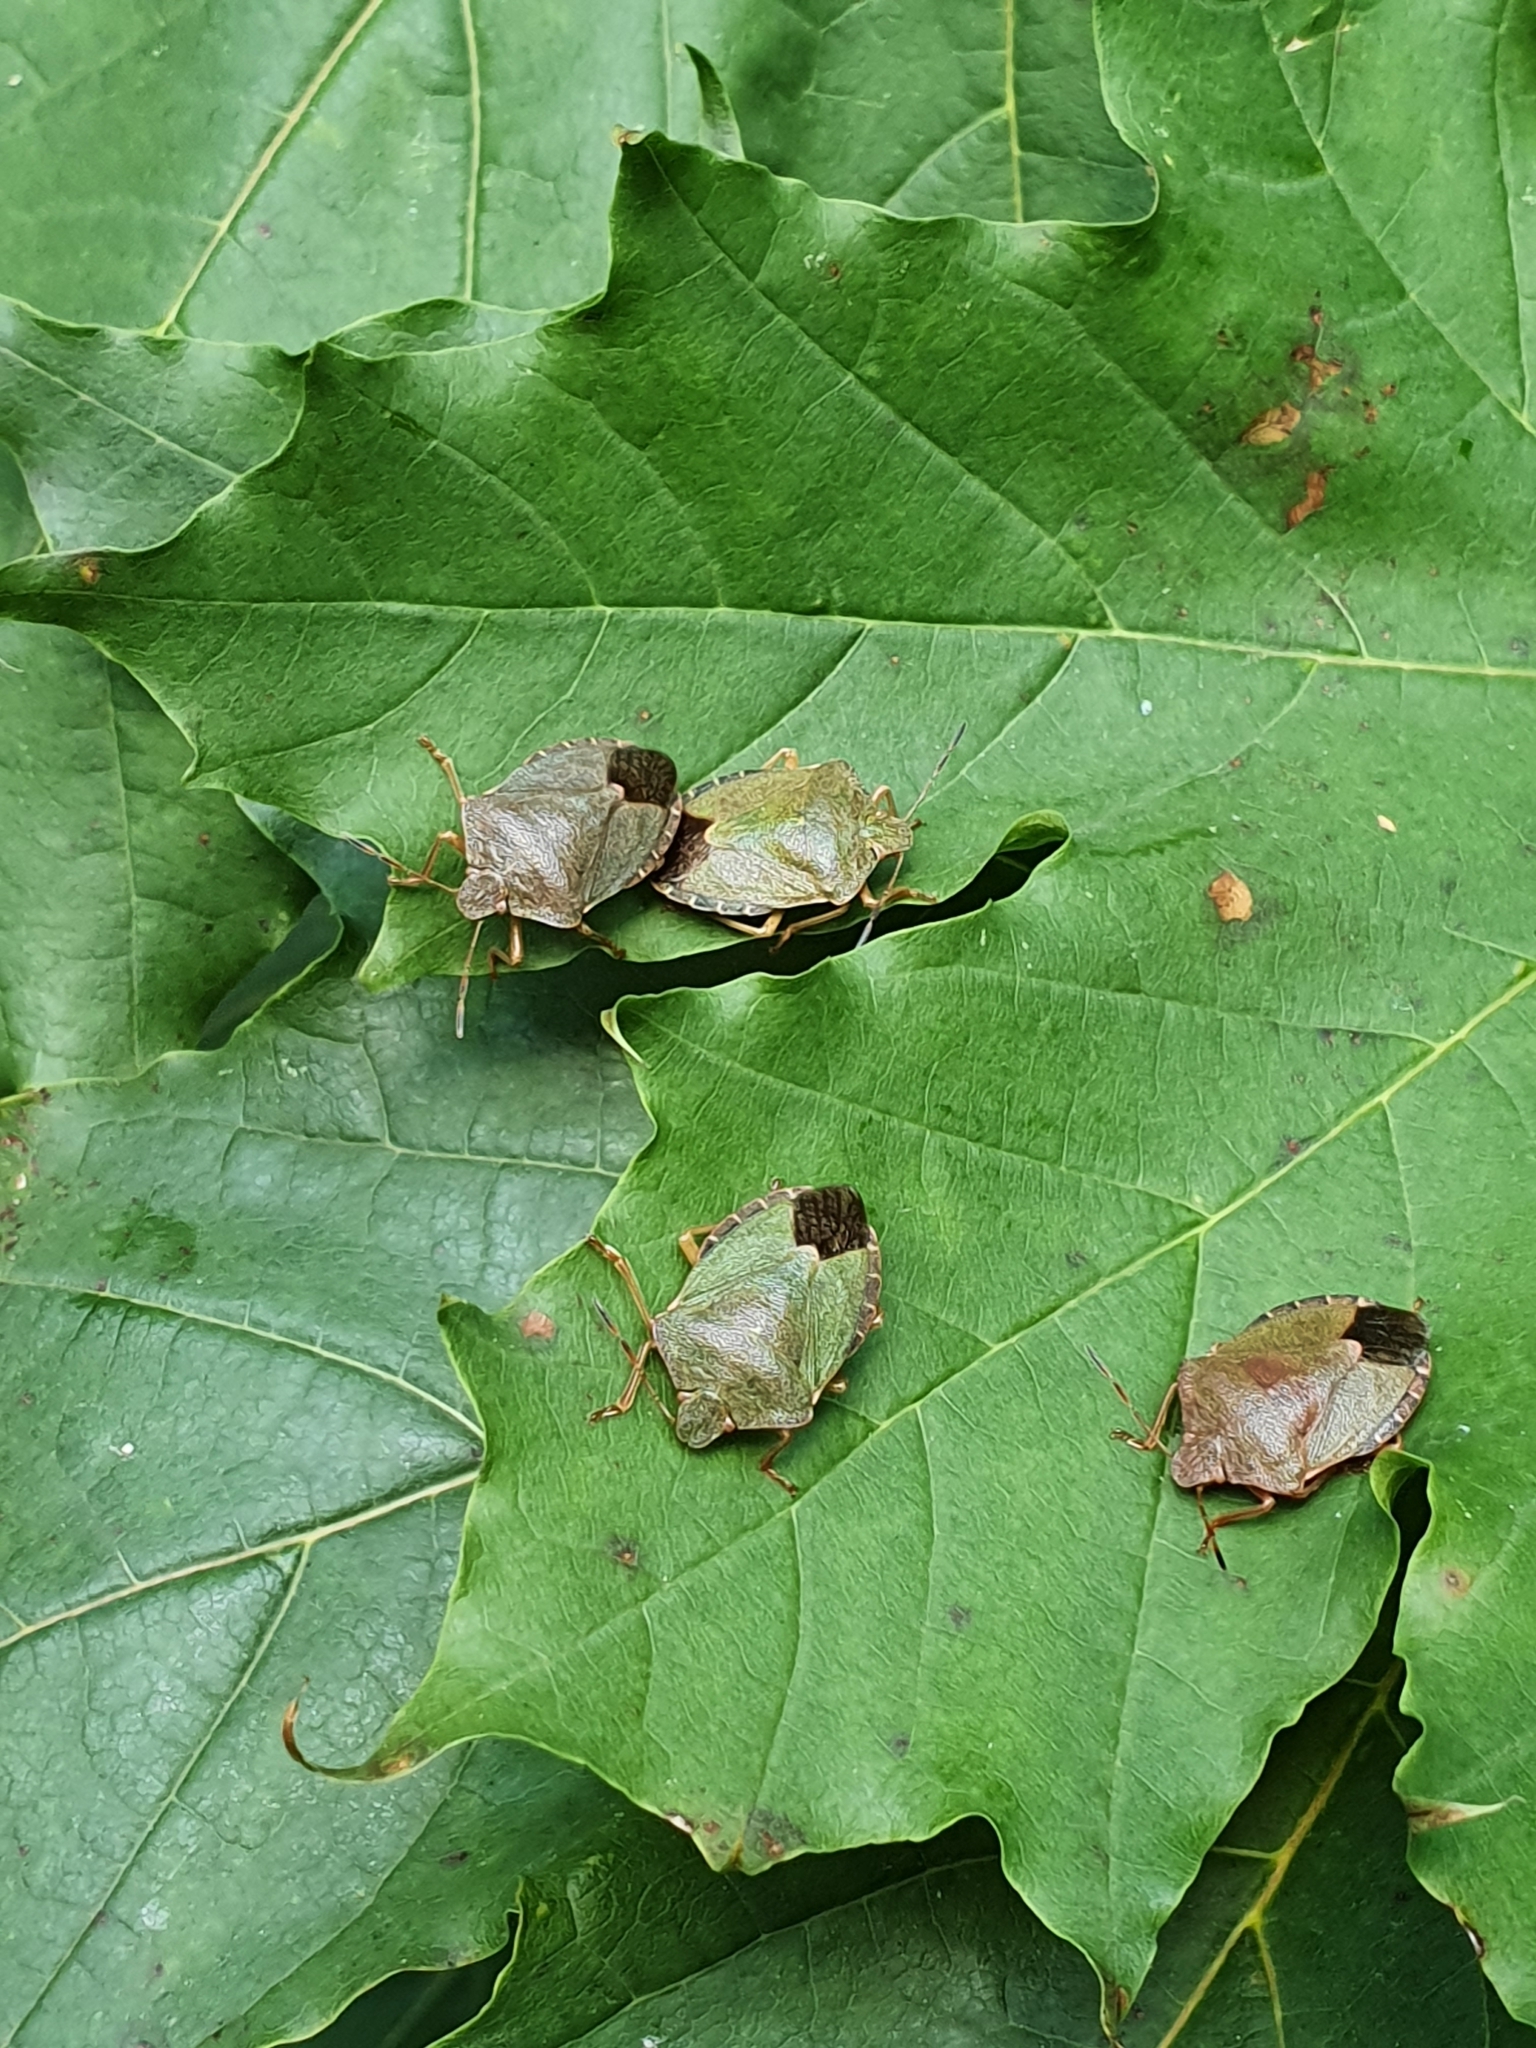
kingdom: Animalia
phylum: Arthropoda
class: Insecta
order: Hemiptera
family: Pentatomidae
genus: Palomena
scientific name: Palomena prasina
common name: Green shieldbug
